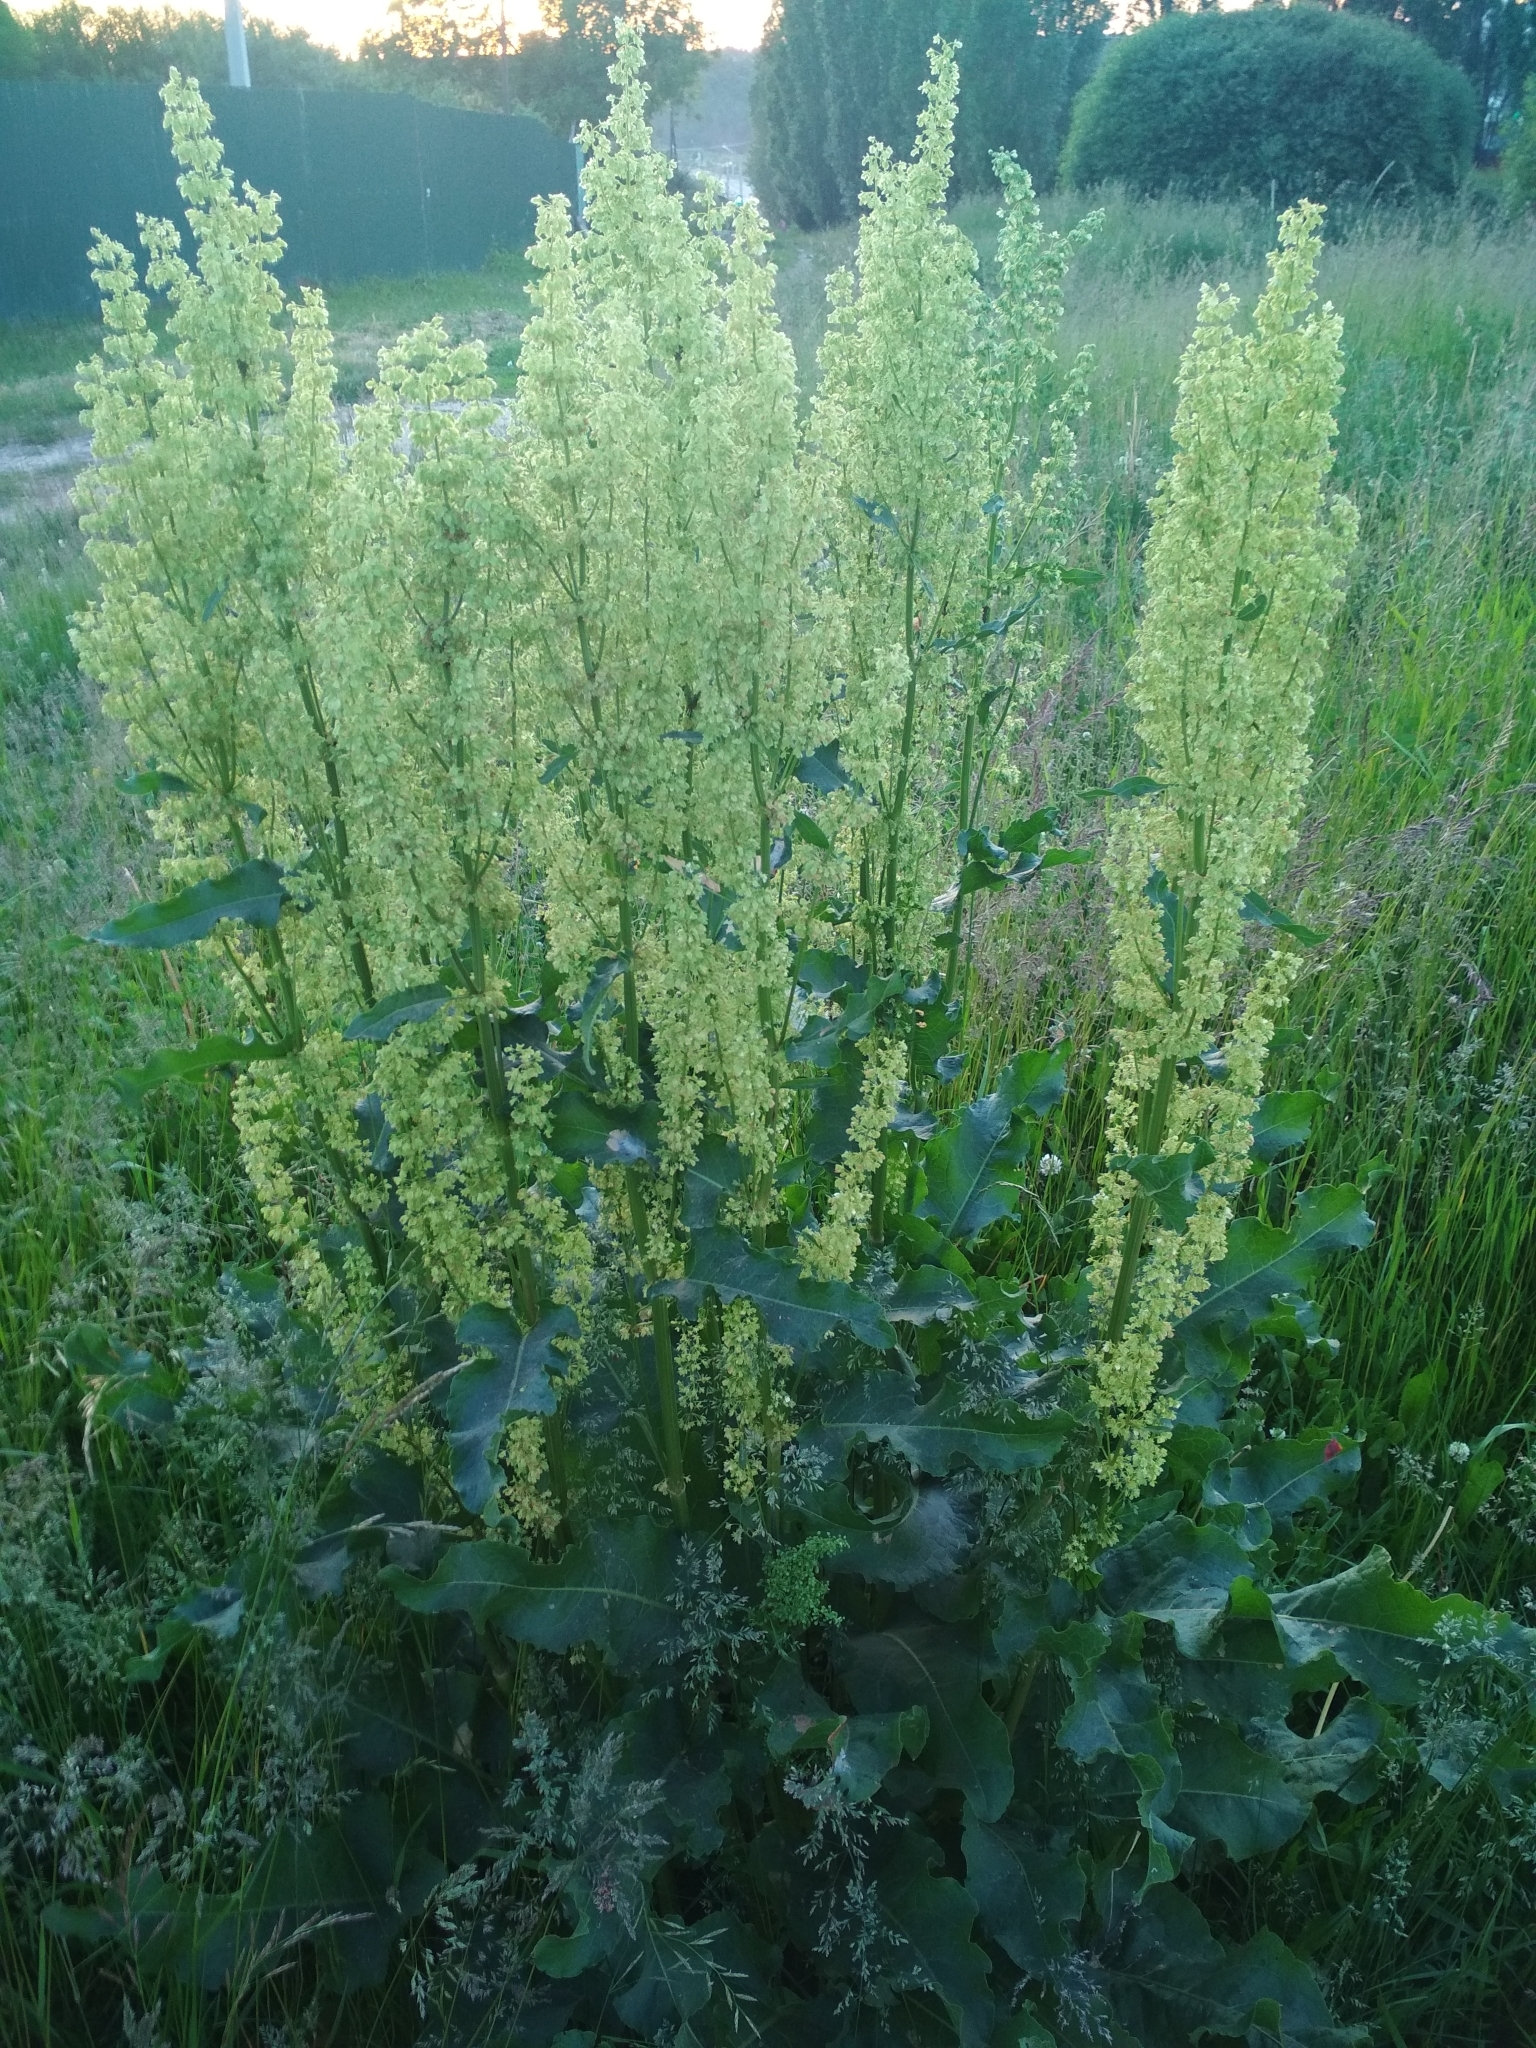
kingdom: Plantae
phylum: Tracheophyta
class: Magnoliopsida
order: Caryophyllales
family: Polygonaceae
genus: Rumex
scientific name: Rumex confertus
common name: Russian dock
